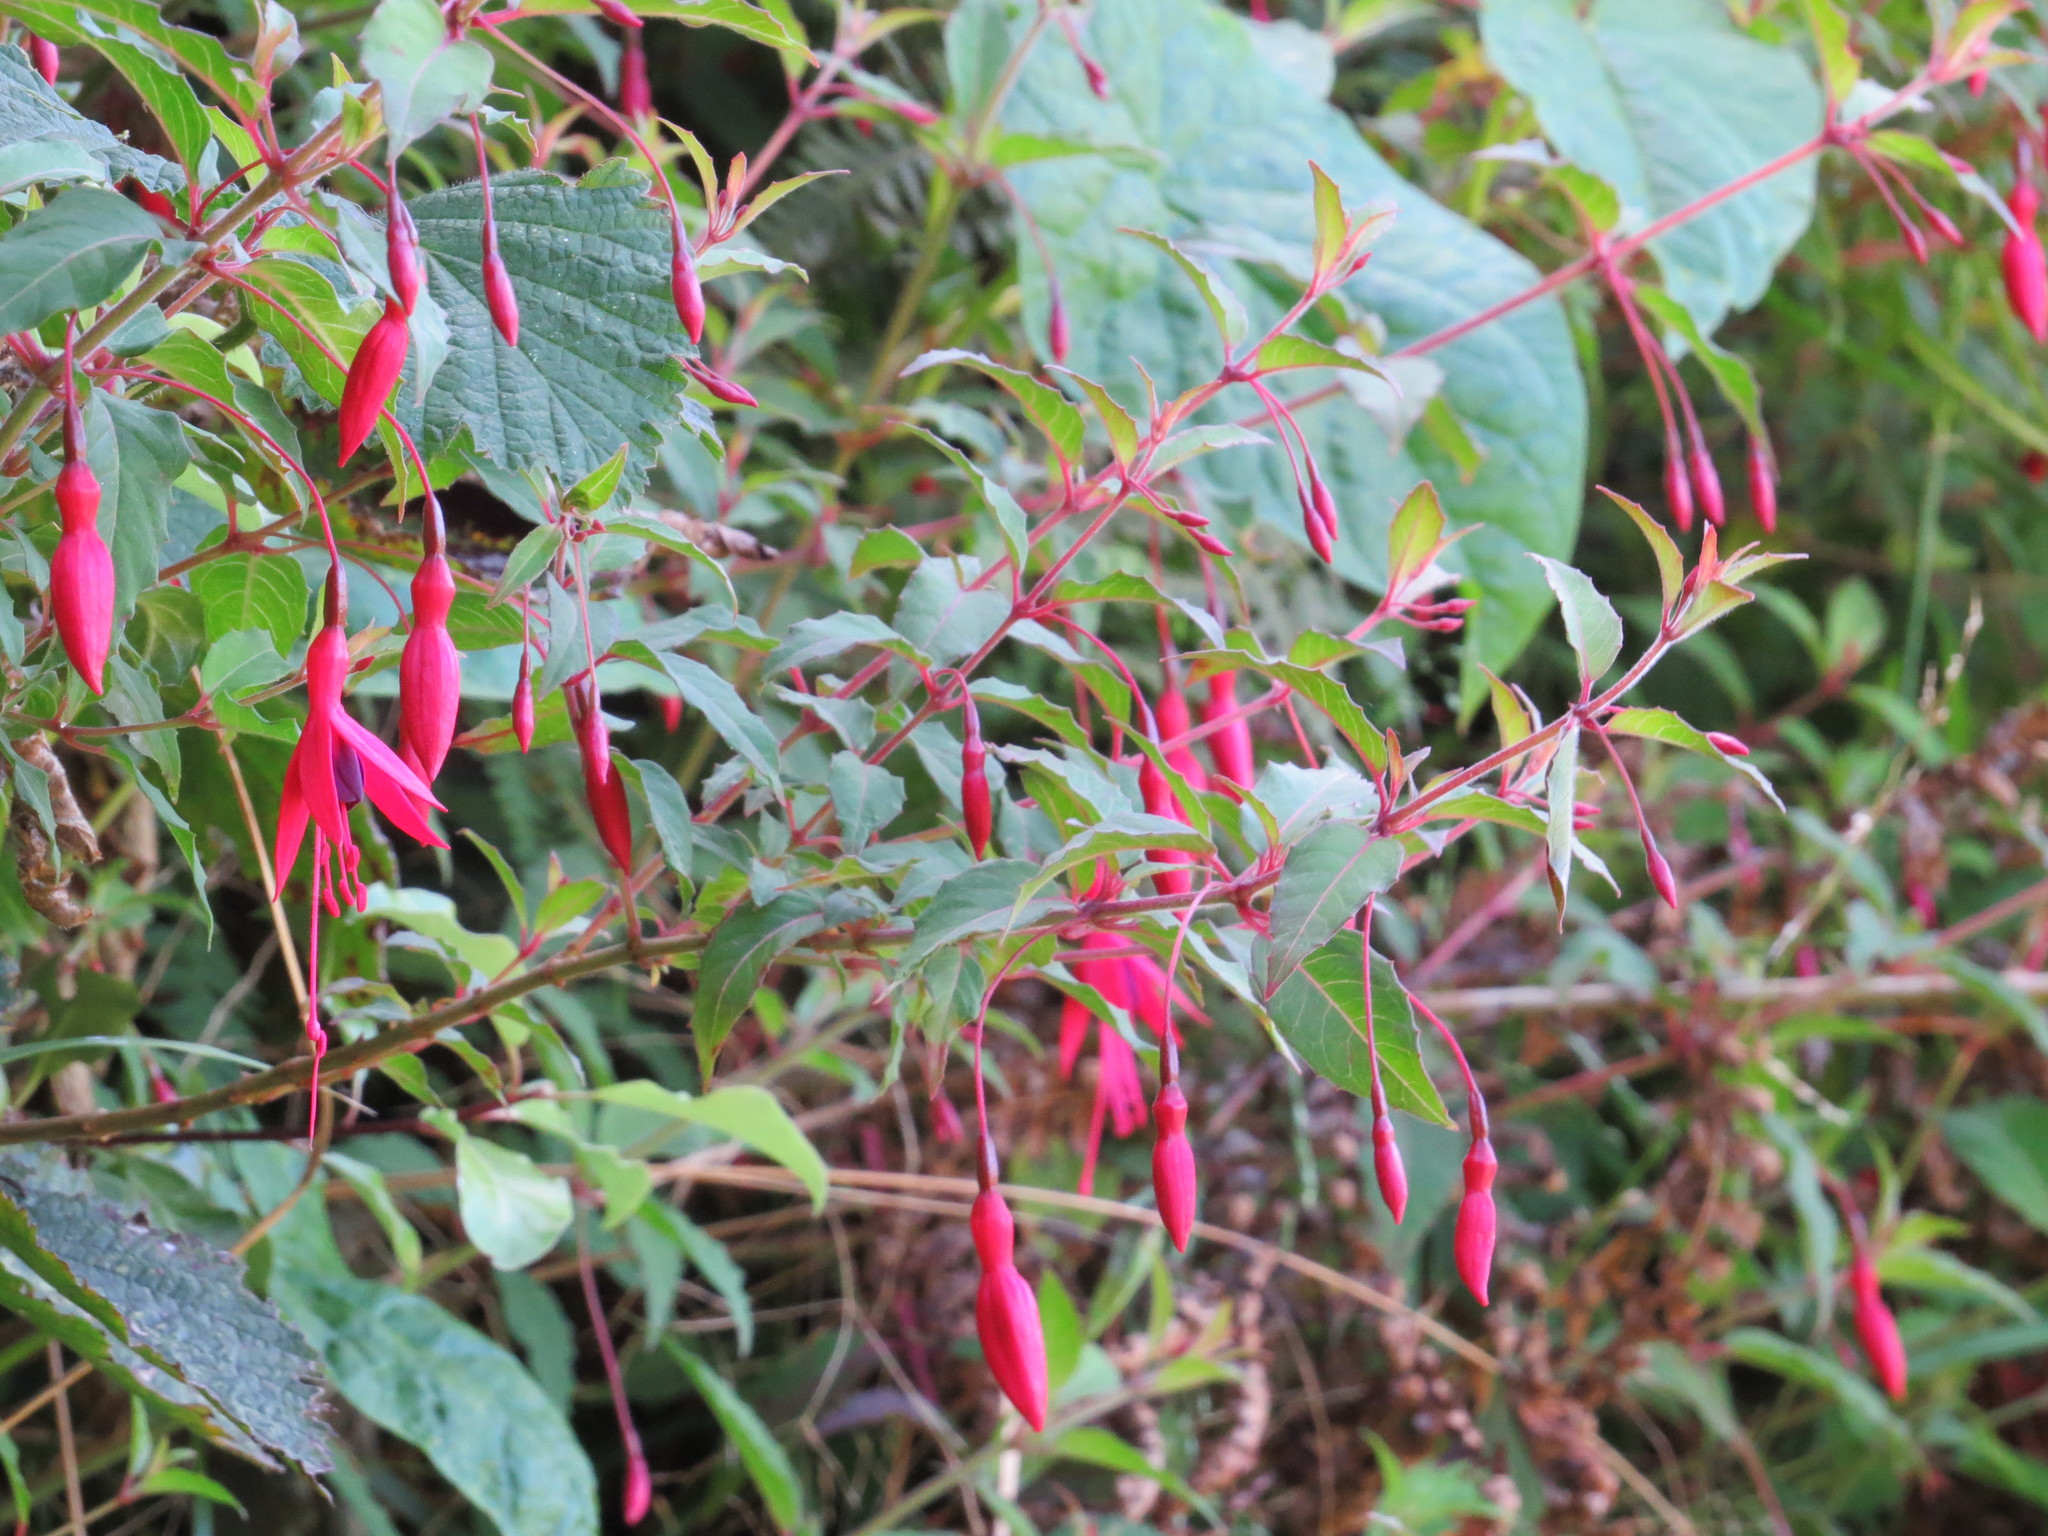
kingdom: Plantae
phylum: Tracheophyta
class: Magnoliopsida
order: Myrtales
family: Onagraceae
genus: Fuchsia
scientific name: Fuchsia magellanica
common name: Hardy fuchsia
